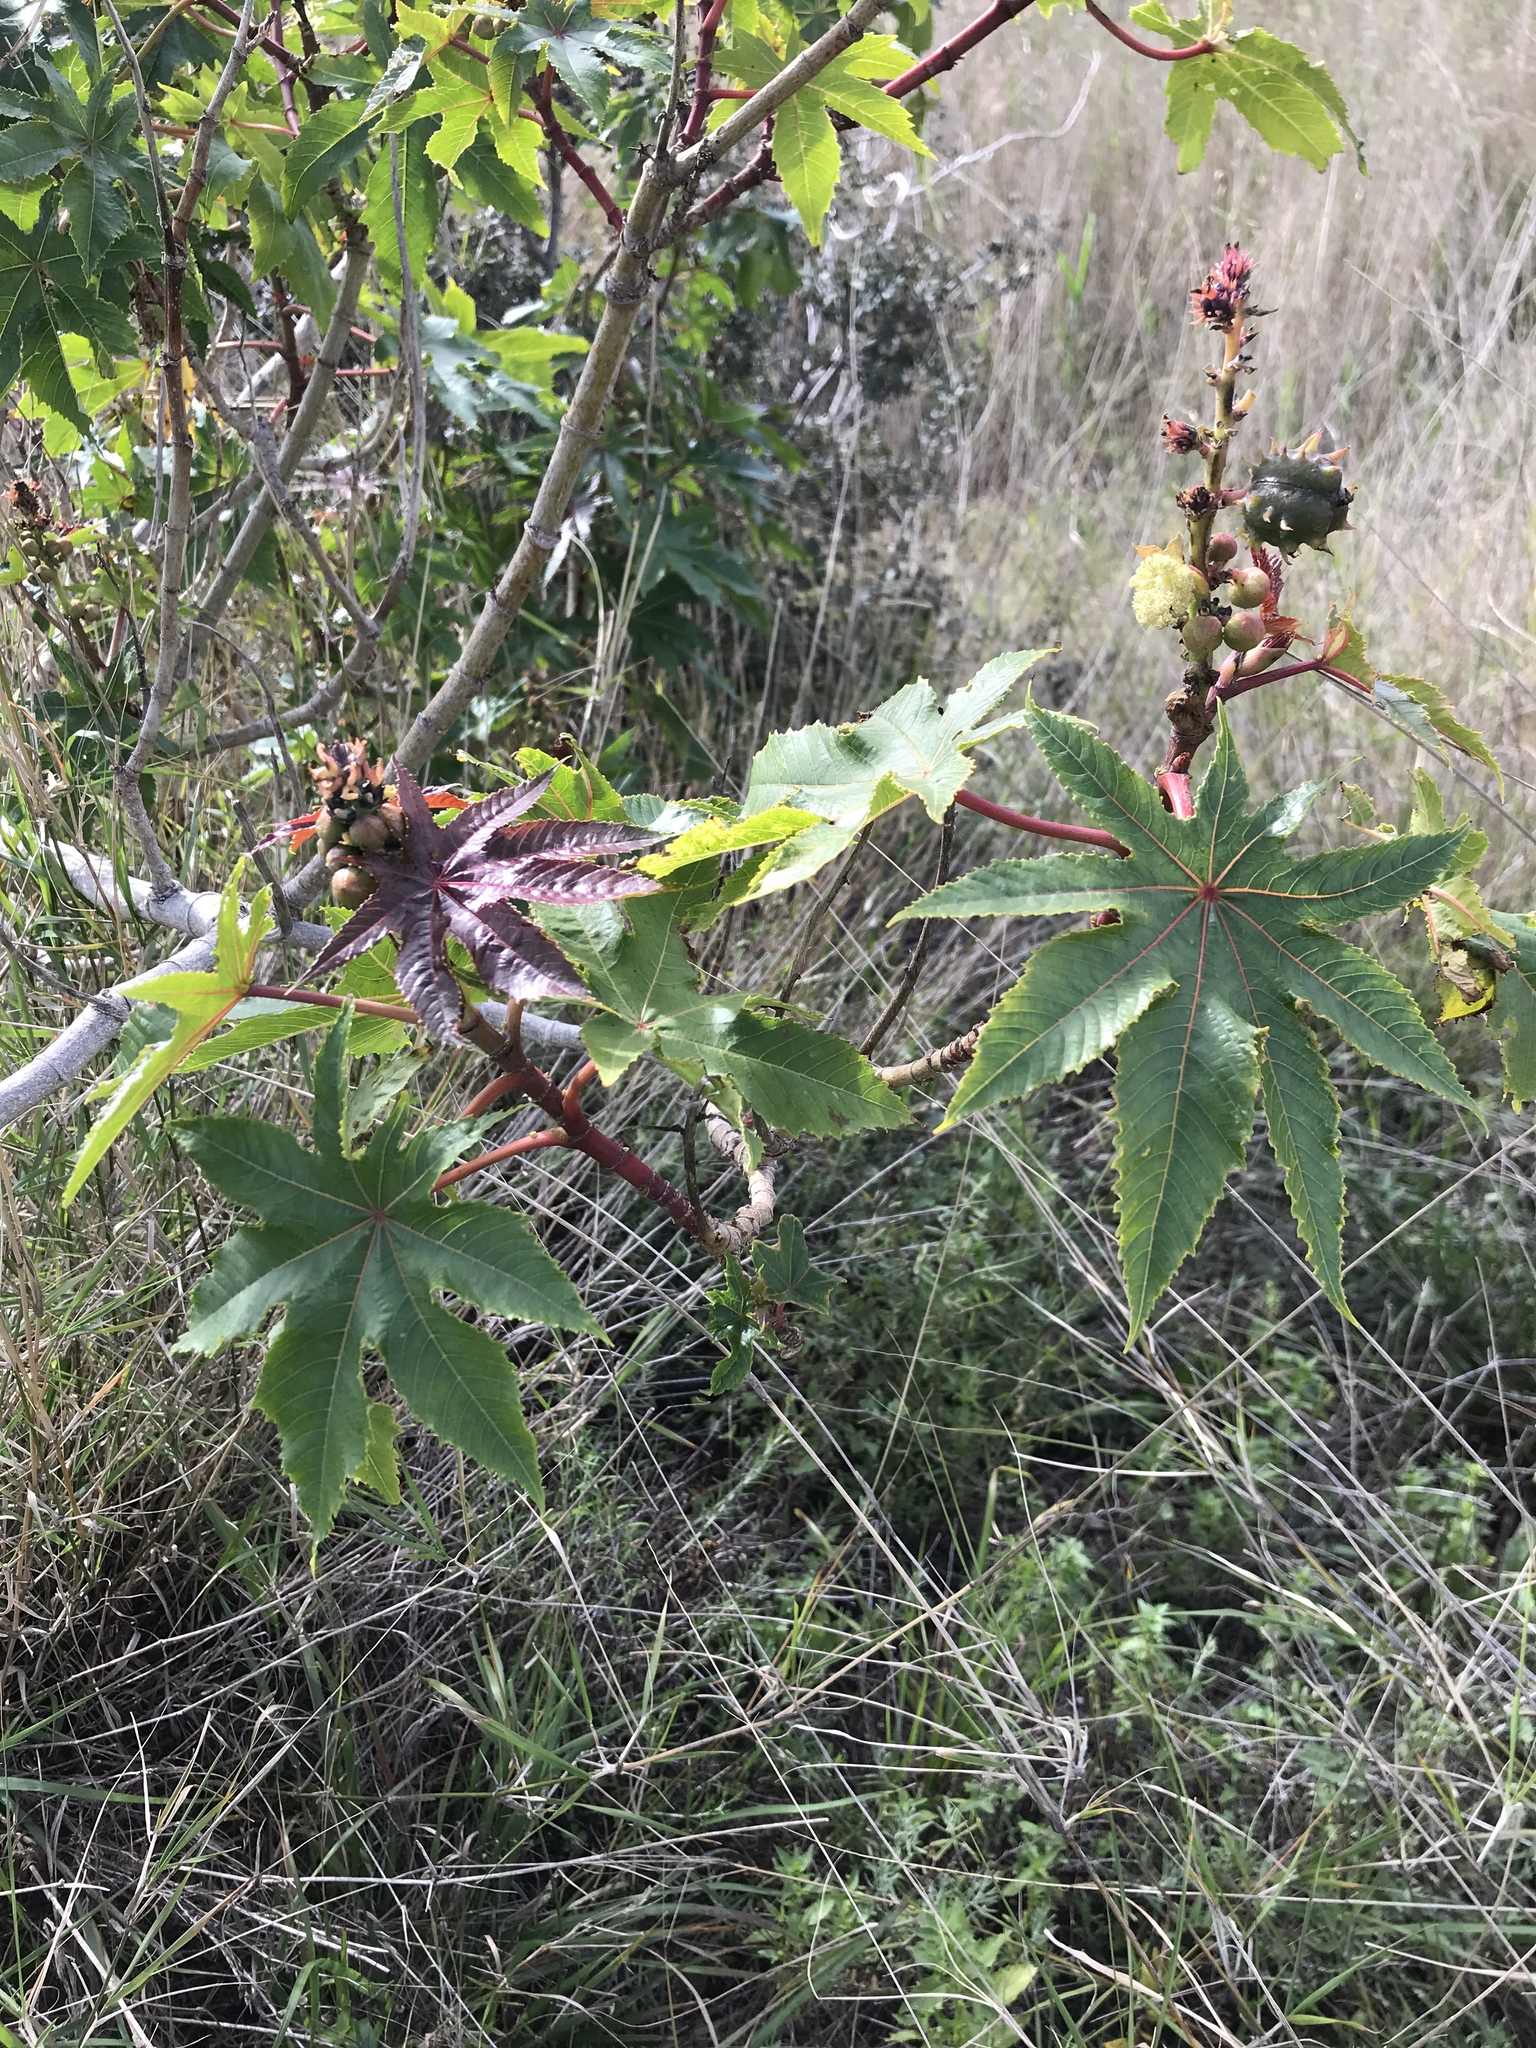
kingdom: Plantae
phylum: Tracheophyta
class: Magnoliopsida
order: Malpighiales
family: Euphorbiaceae
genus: Ricinus
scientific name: Ricinus communis
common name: Castor-oil-plant
